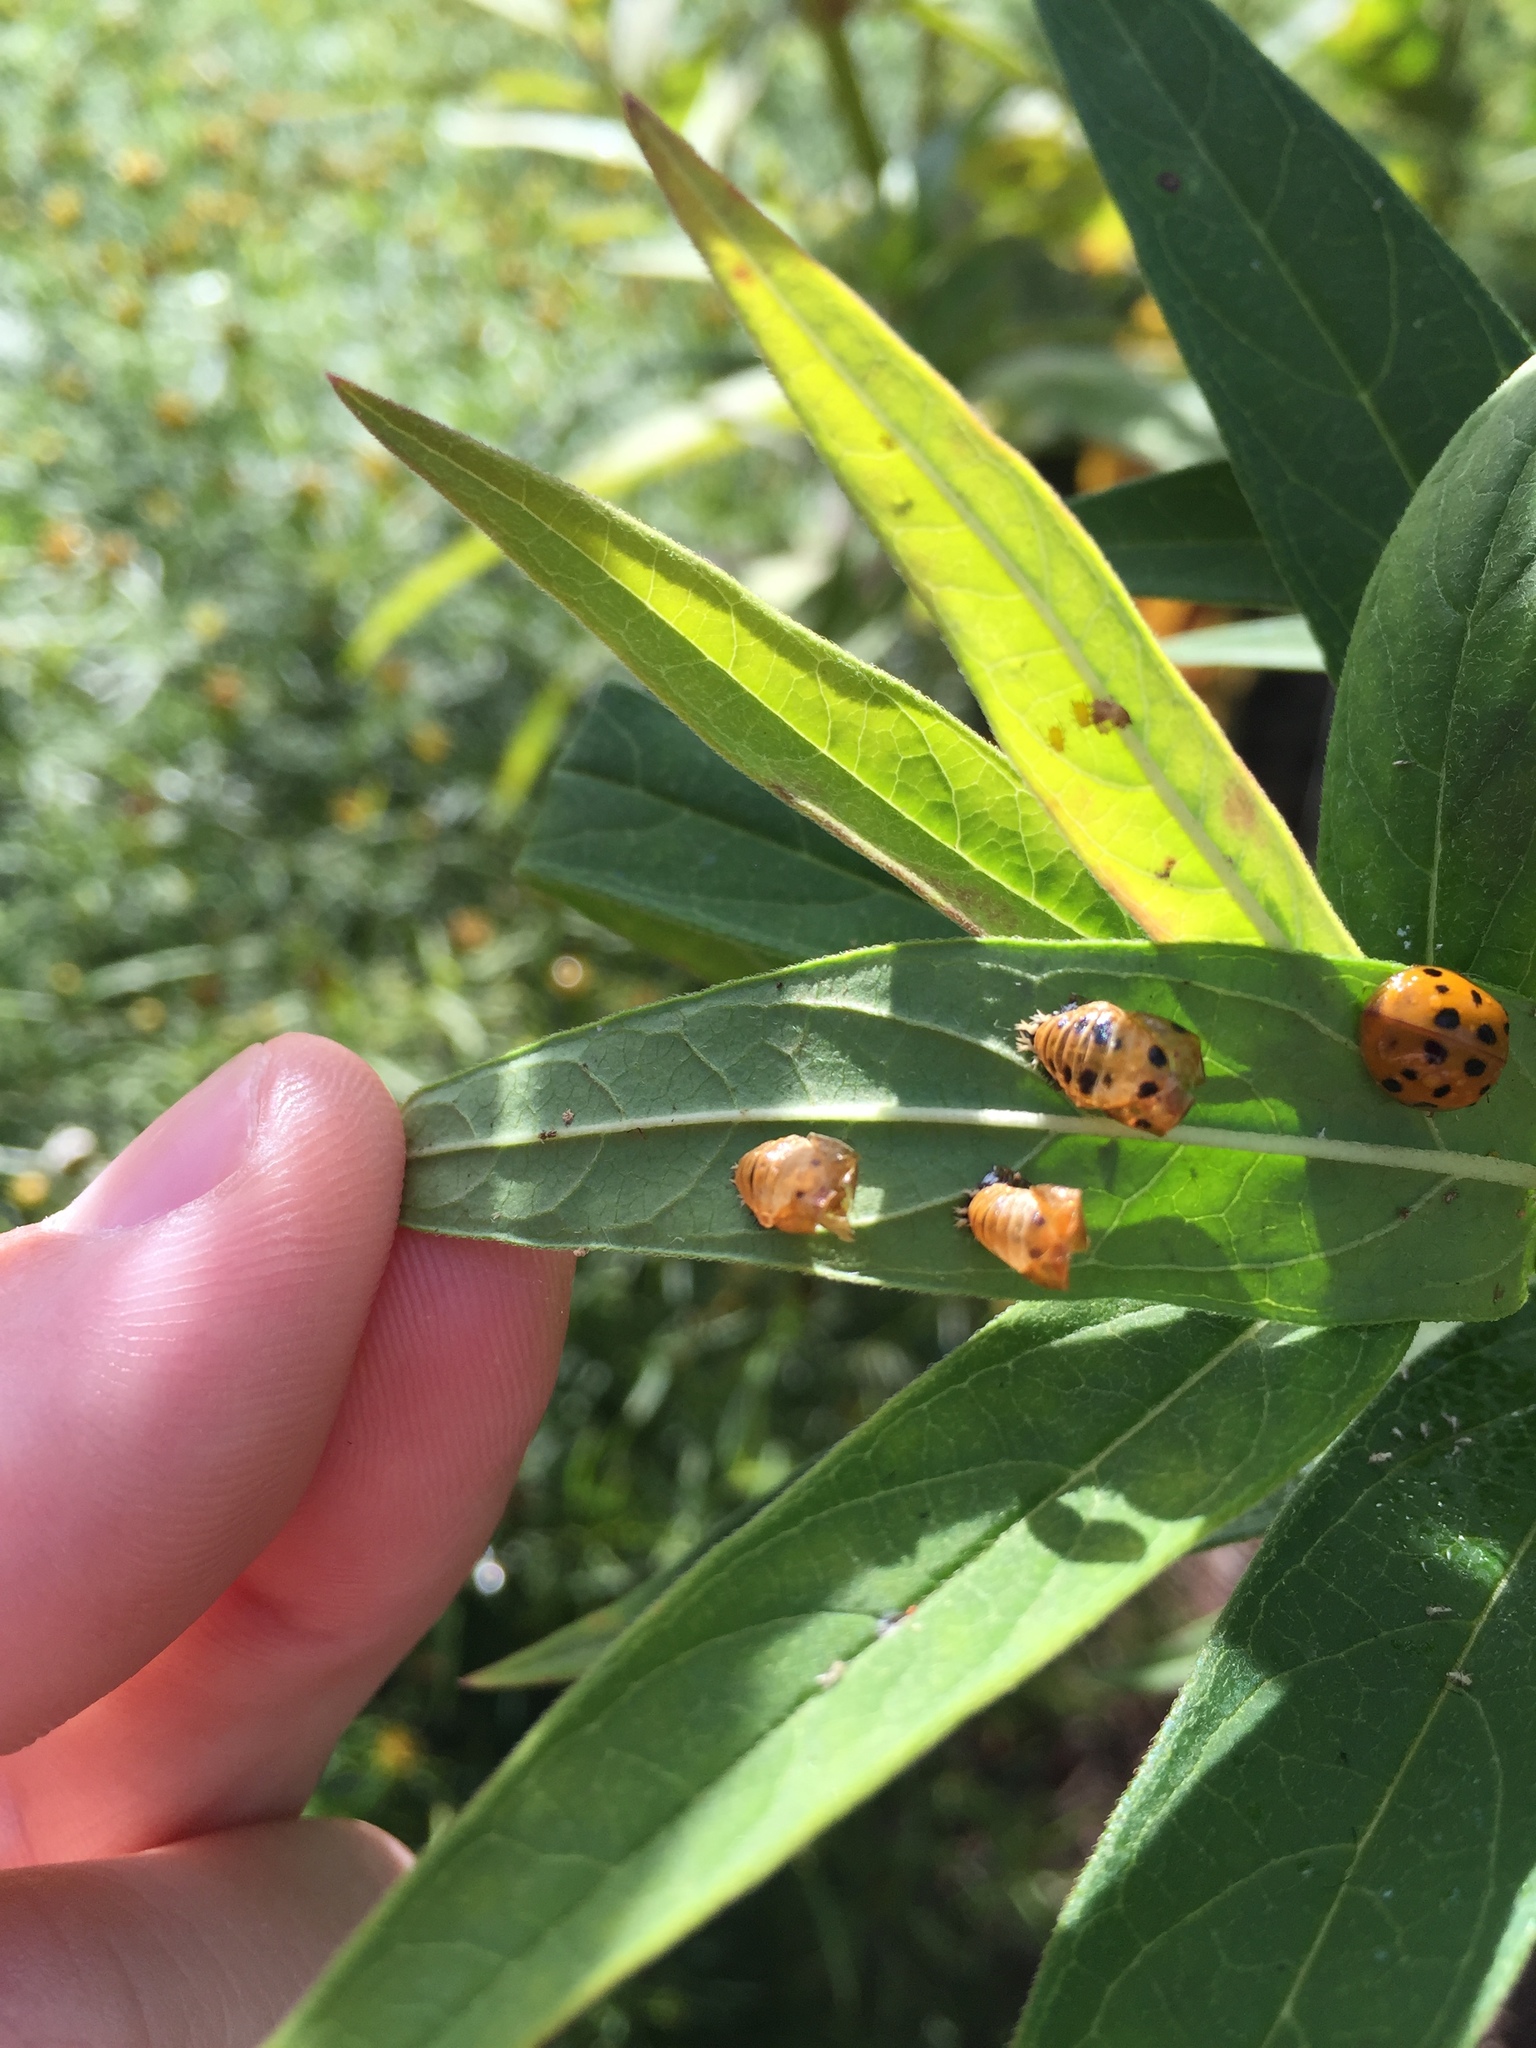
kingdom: Animalia
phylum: Arthropoda
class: Insecta
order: Coleoptera
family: Coccinellidae
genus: Harmonia
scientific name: Harmonia axyridis
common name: Harlequin ladybird
